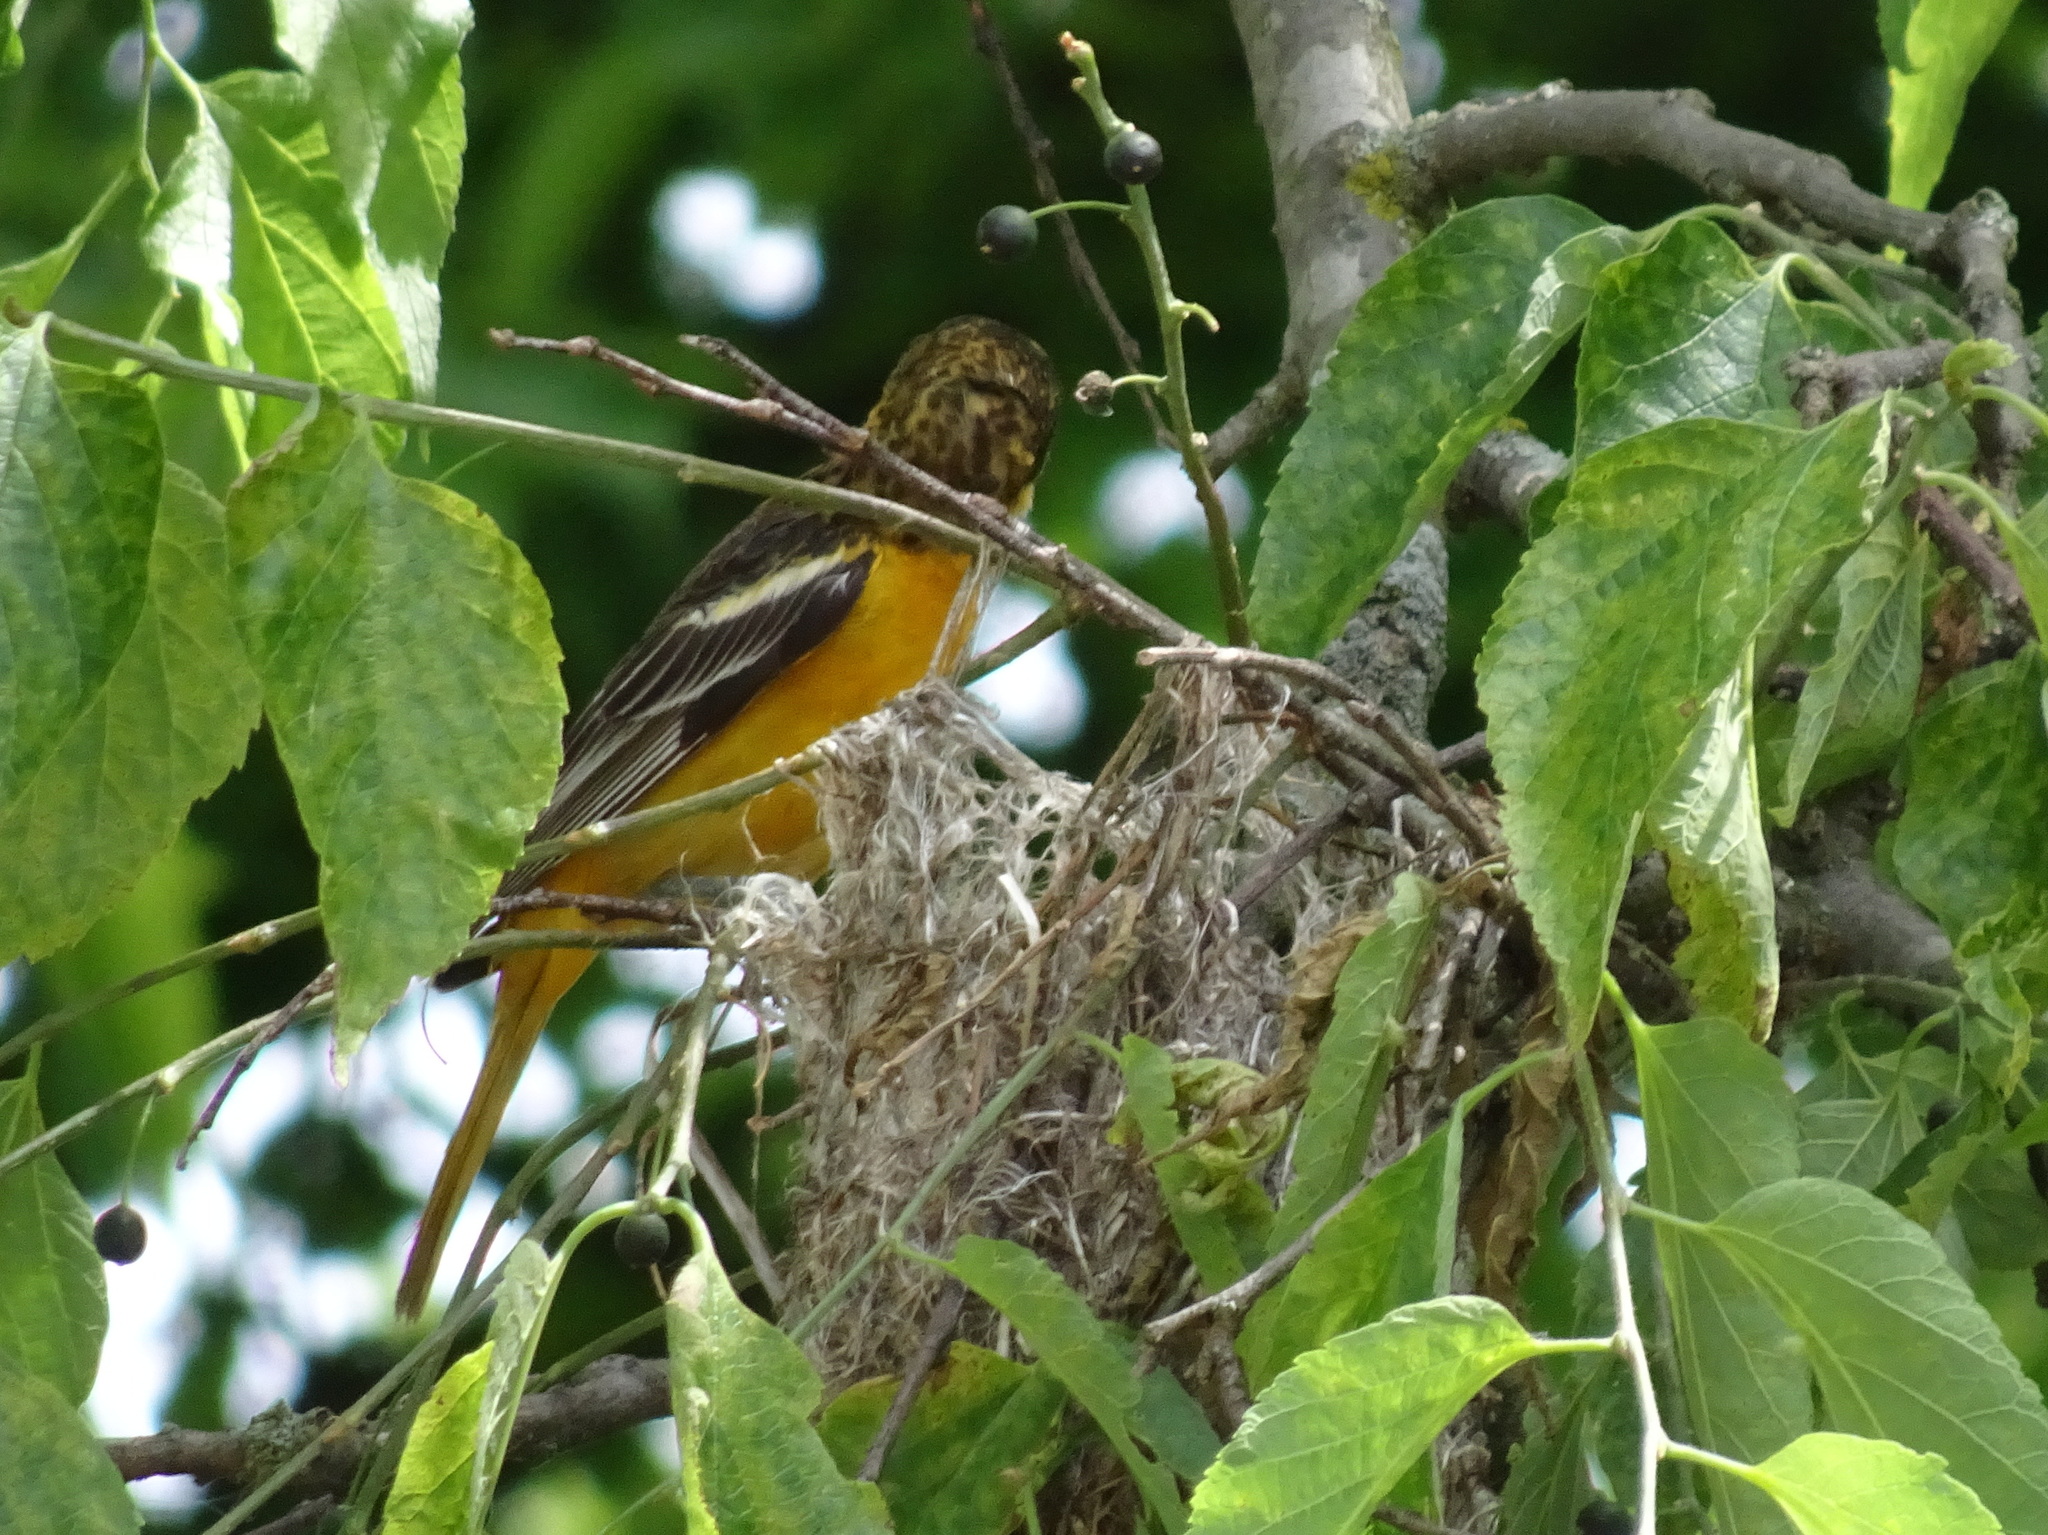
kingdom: Animalia
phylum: Chordata
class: Aves
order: Passeriformes
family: Icteridae
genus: Icterus
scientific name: Icterus galbula
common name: Baltimore oriole
